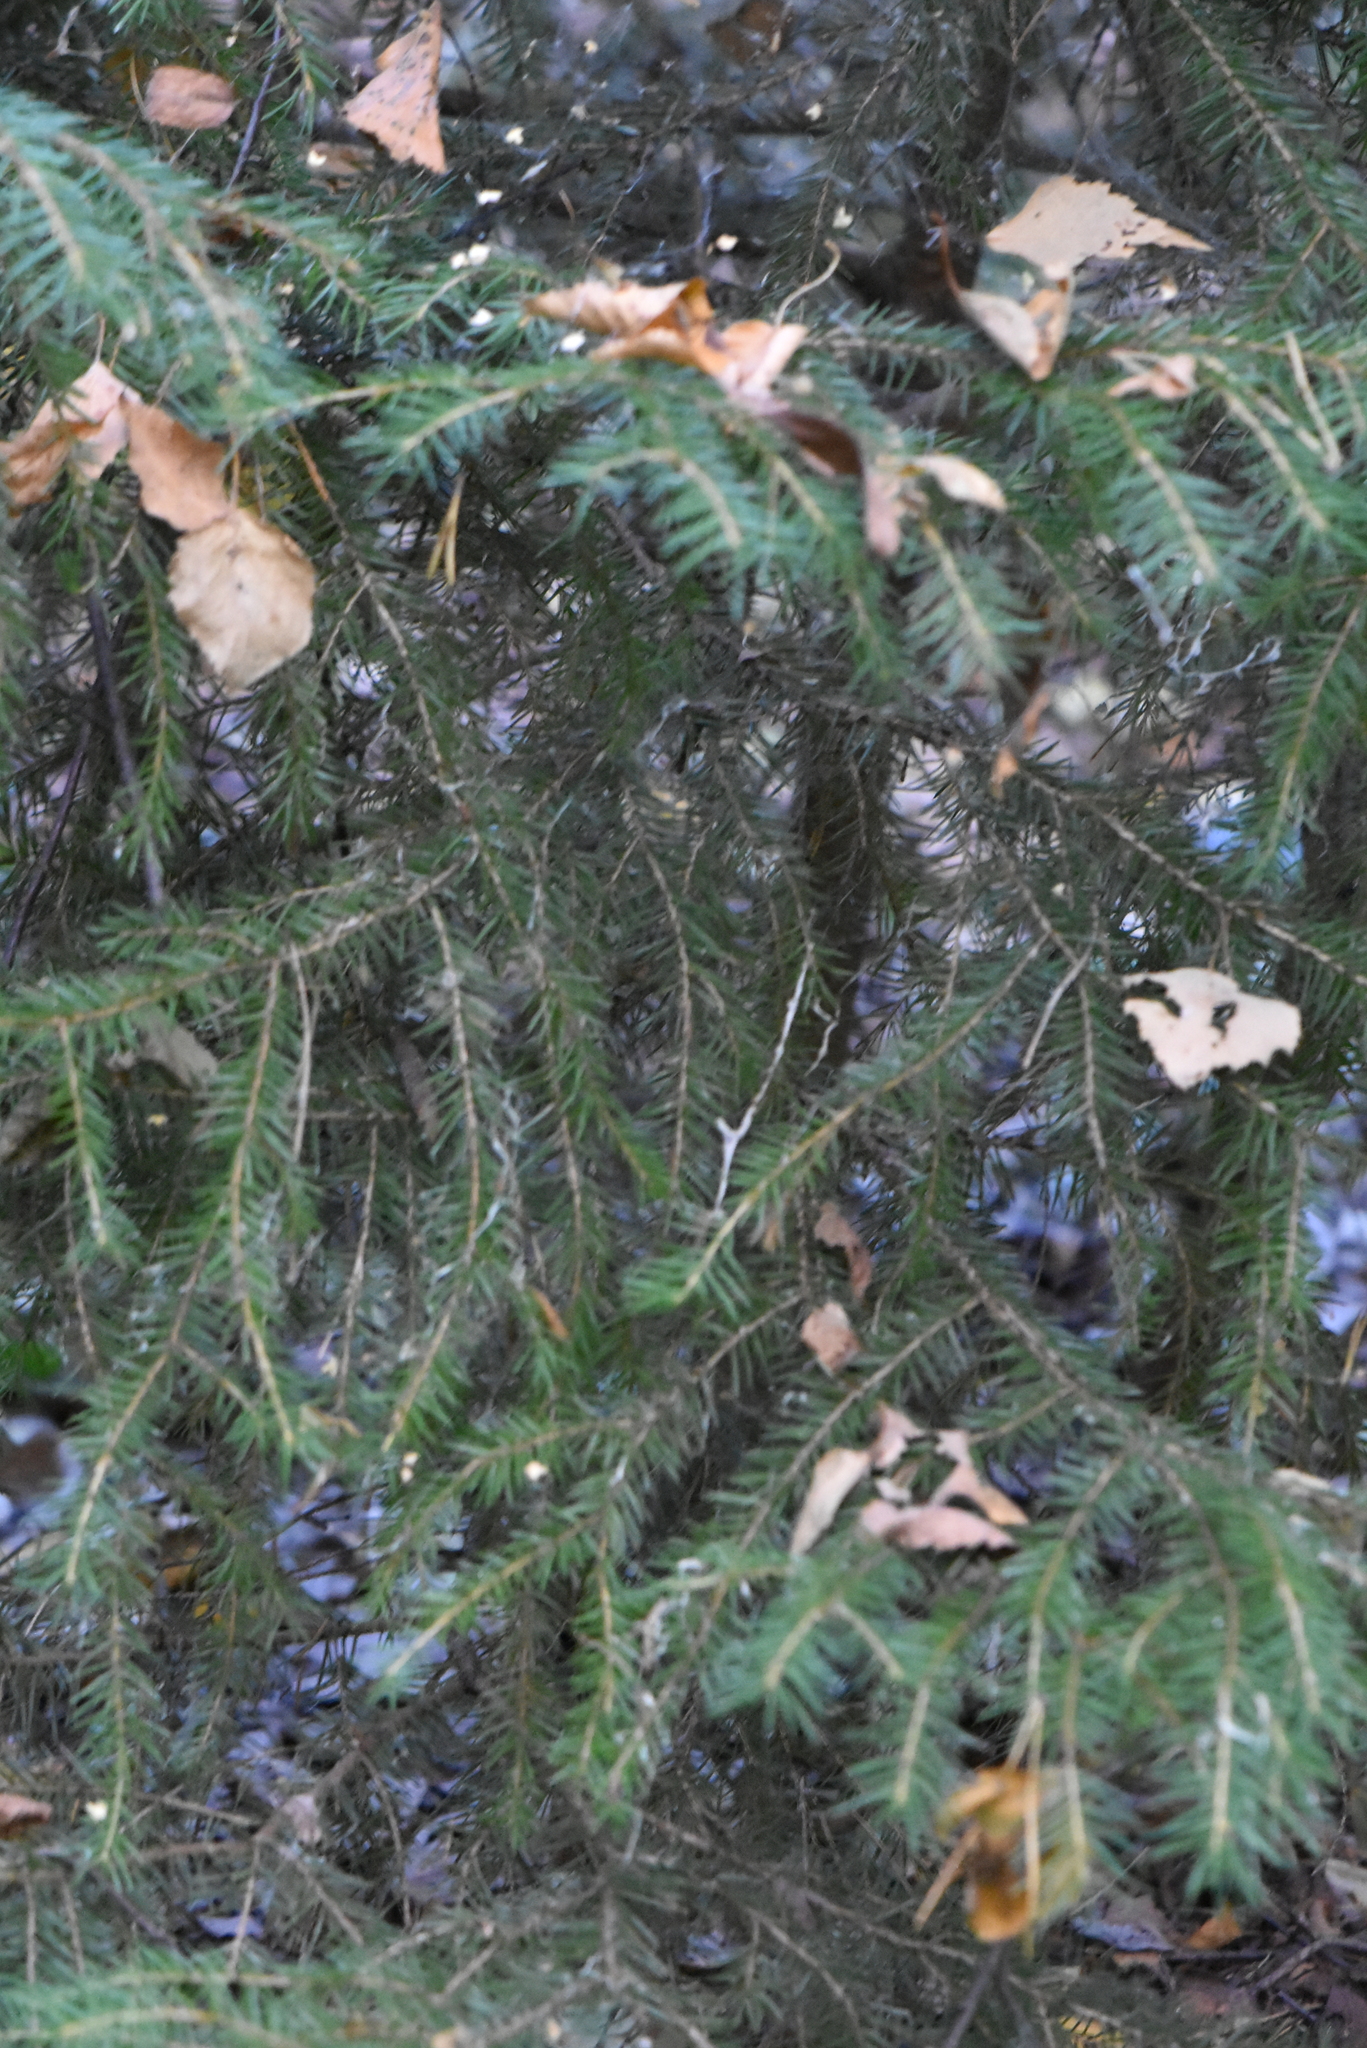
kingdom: Plantae
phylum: Tracheophyta
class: Pinopsida
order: Pinales
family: Pinaceae
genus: Picea
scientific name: Picea abies
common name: Norway spruce
